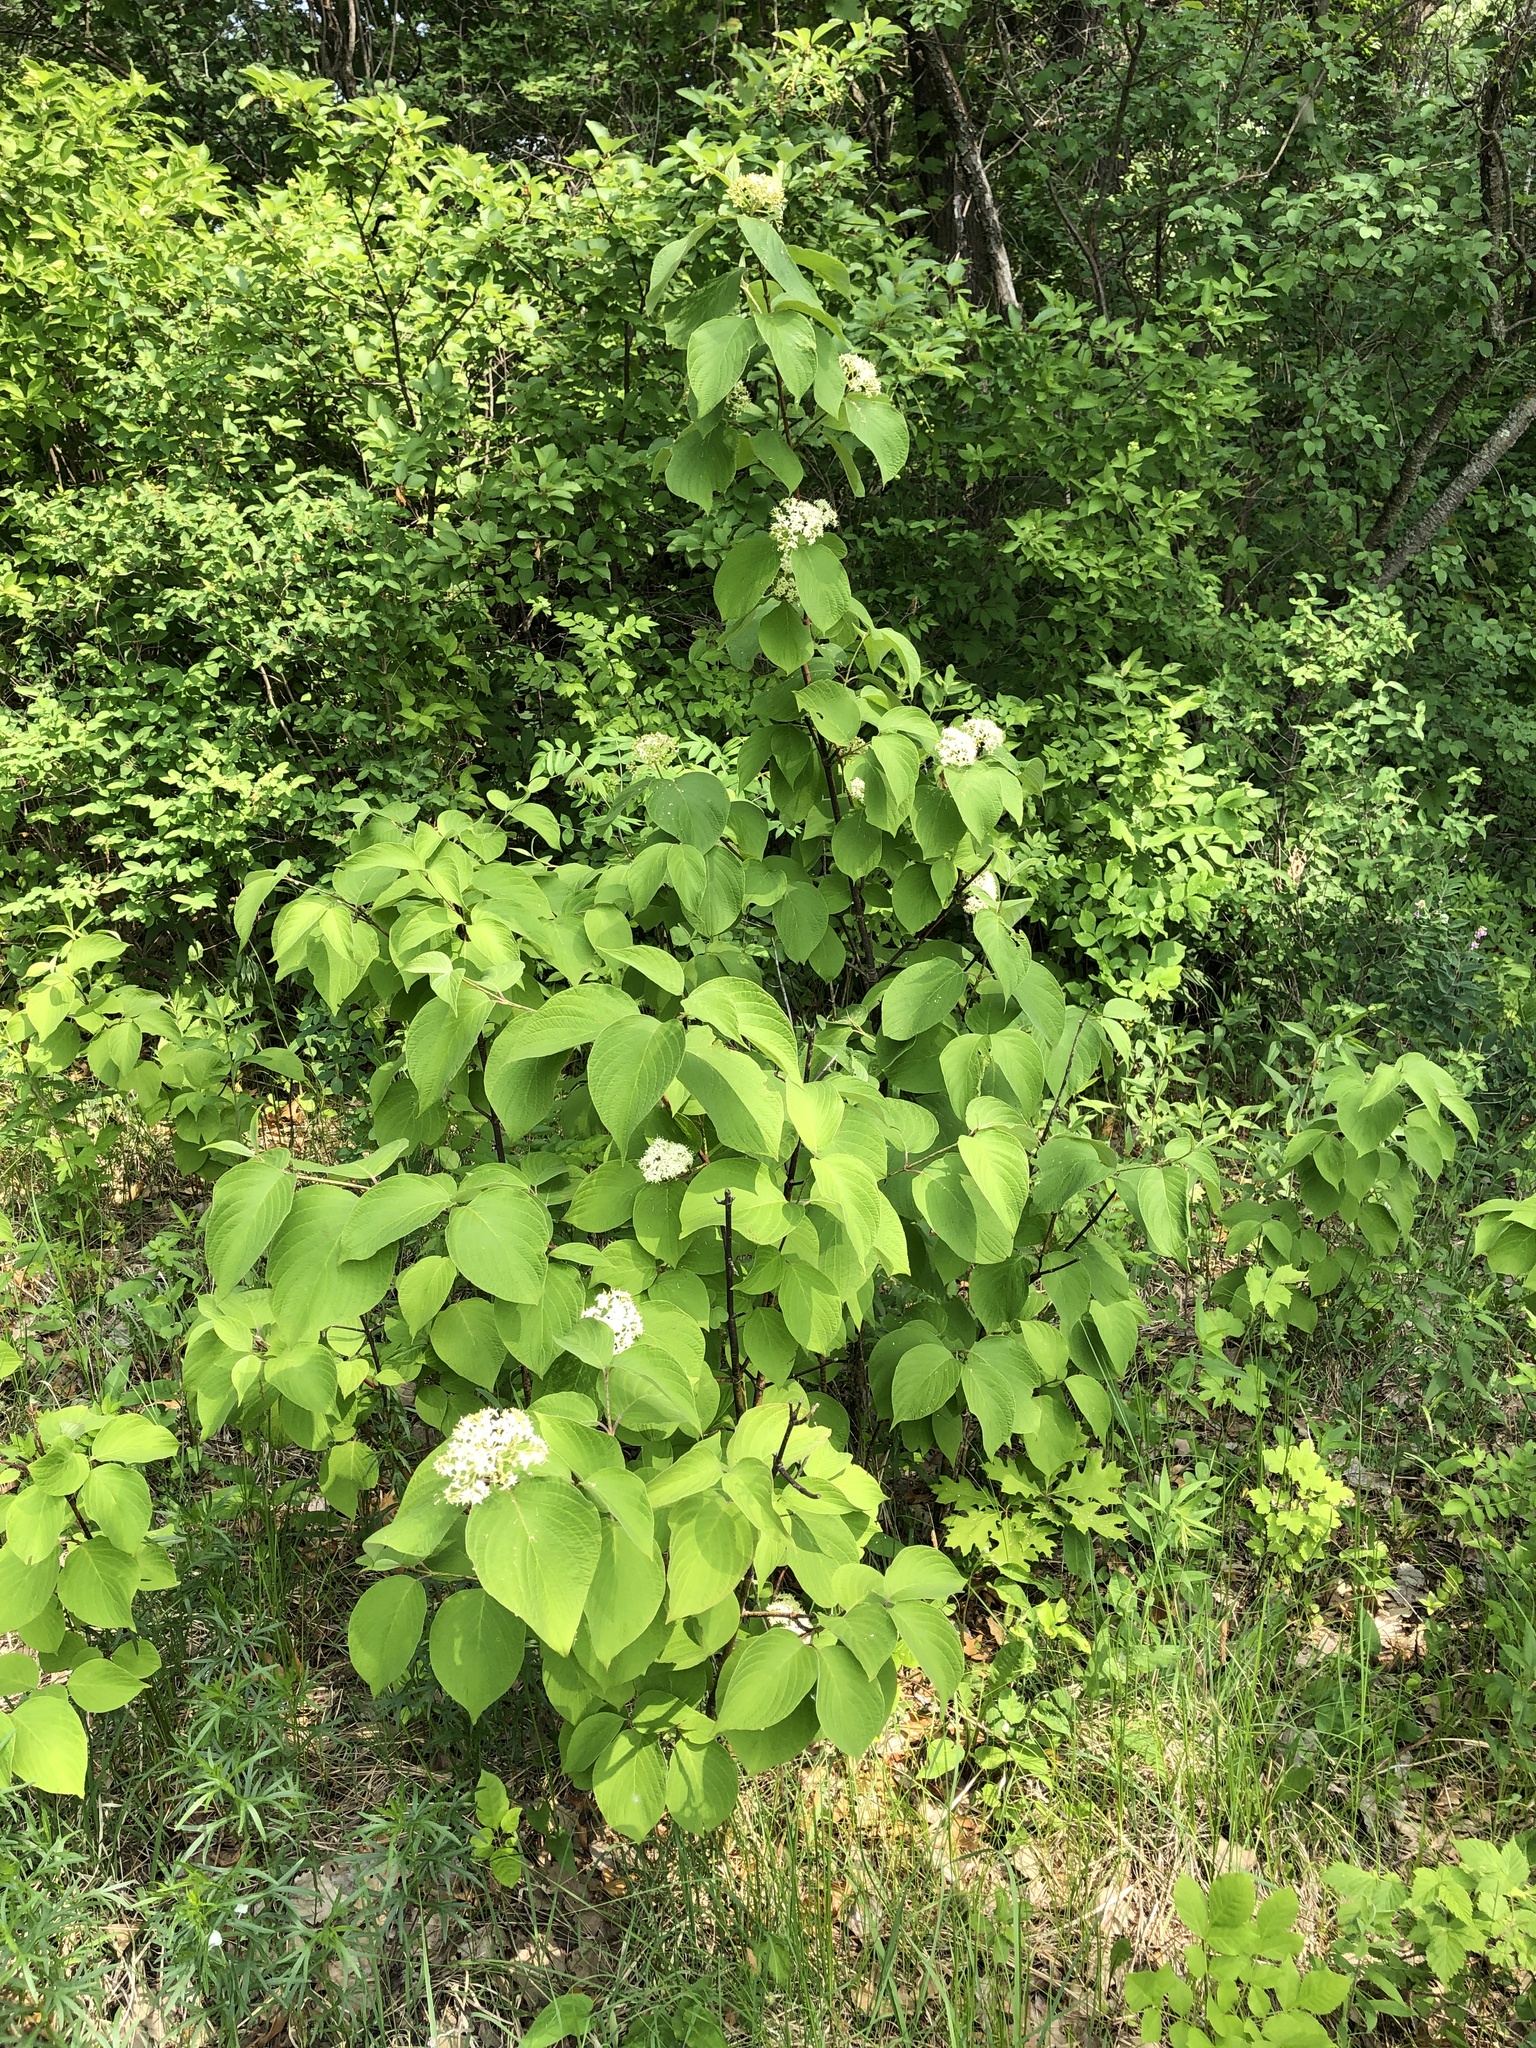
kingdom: Plantae
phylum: Tracheophyta
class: Magnoliopsida
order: Cornales
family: Cornaceae
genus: Cornus
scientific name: Cornus rugosa
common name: Round-leaf dogwood
